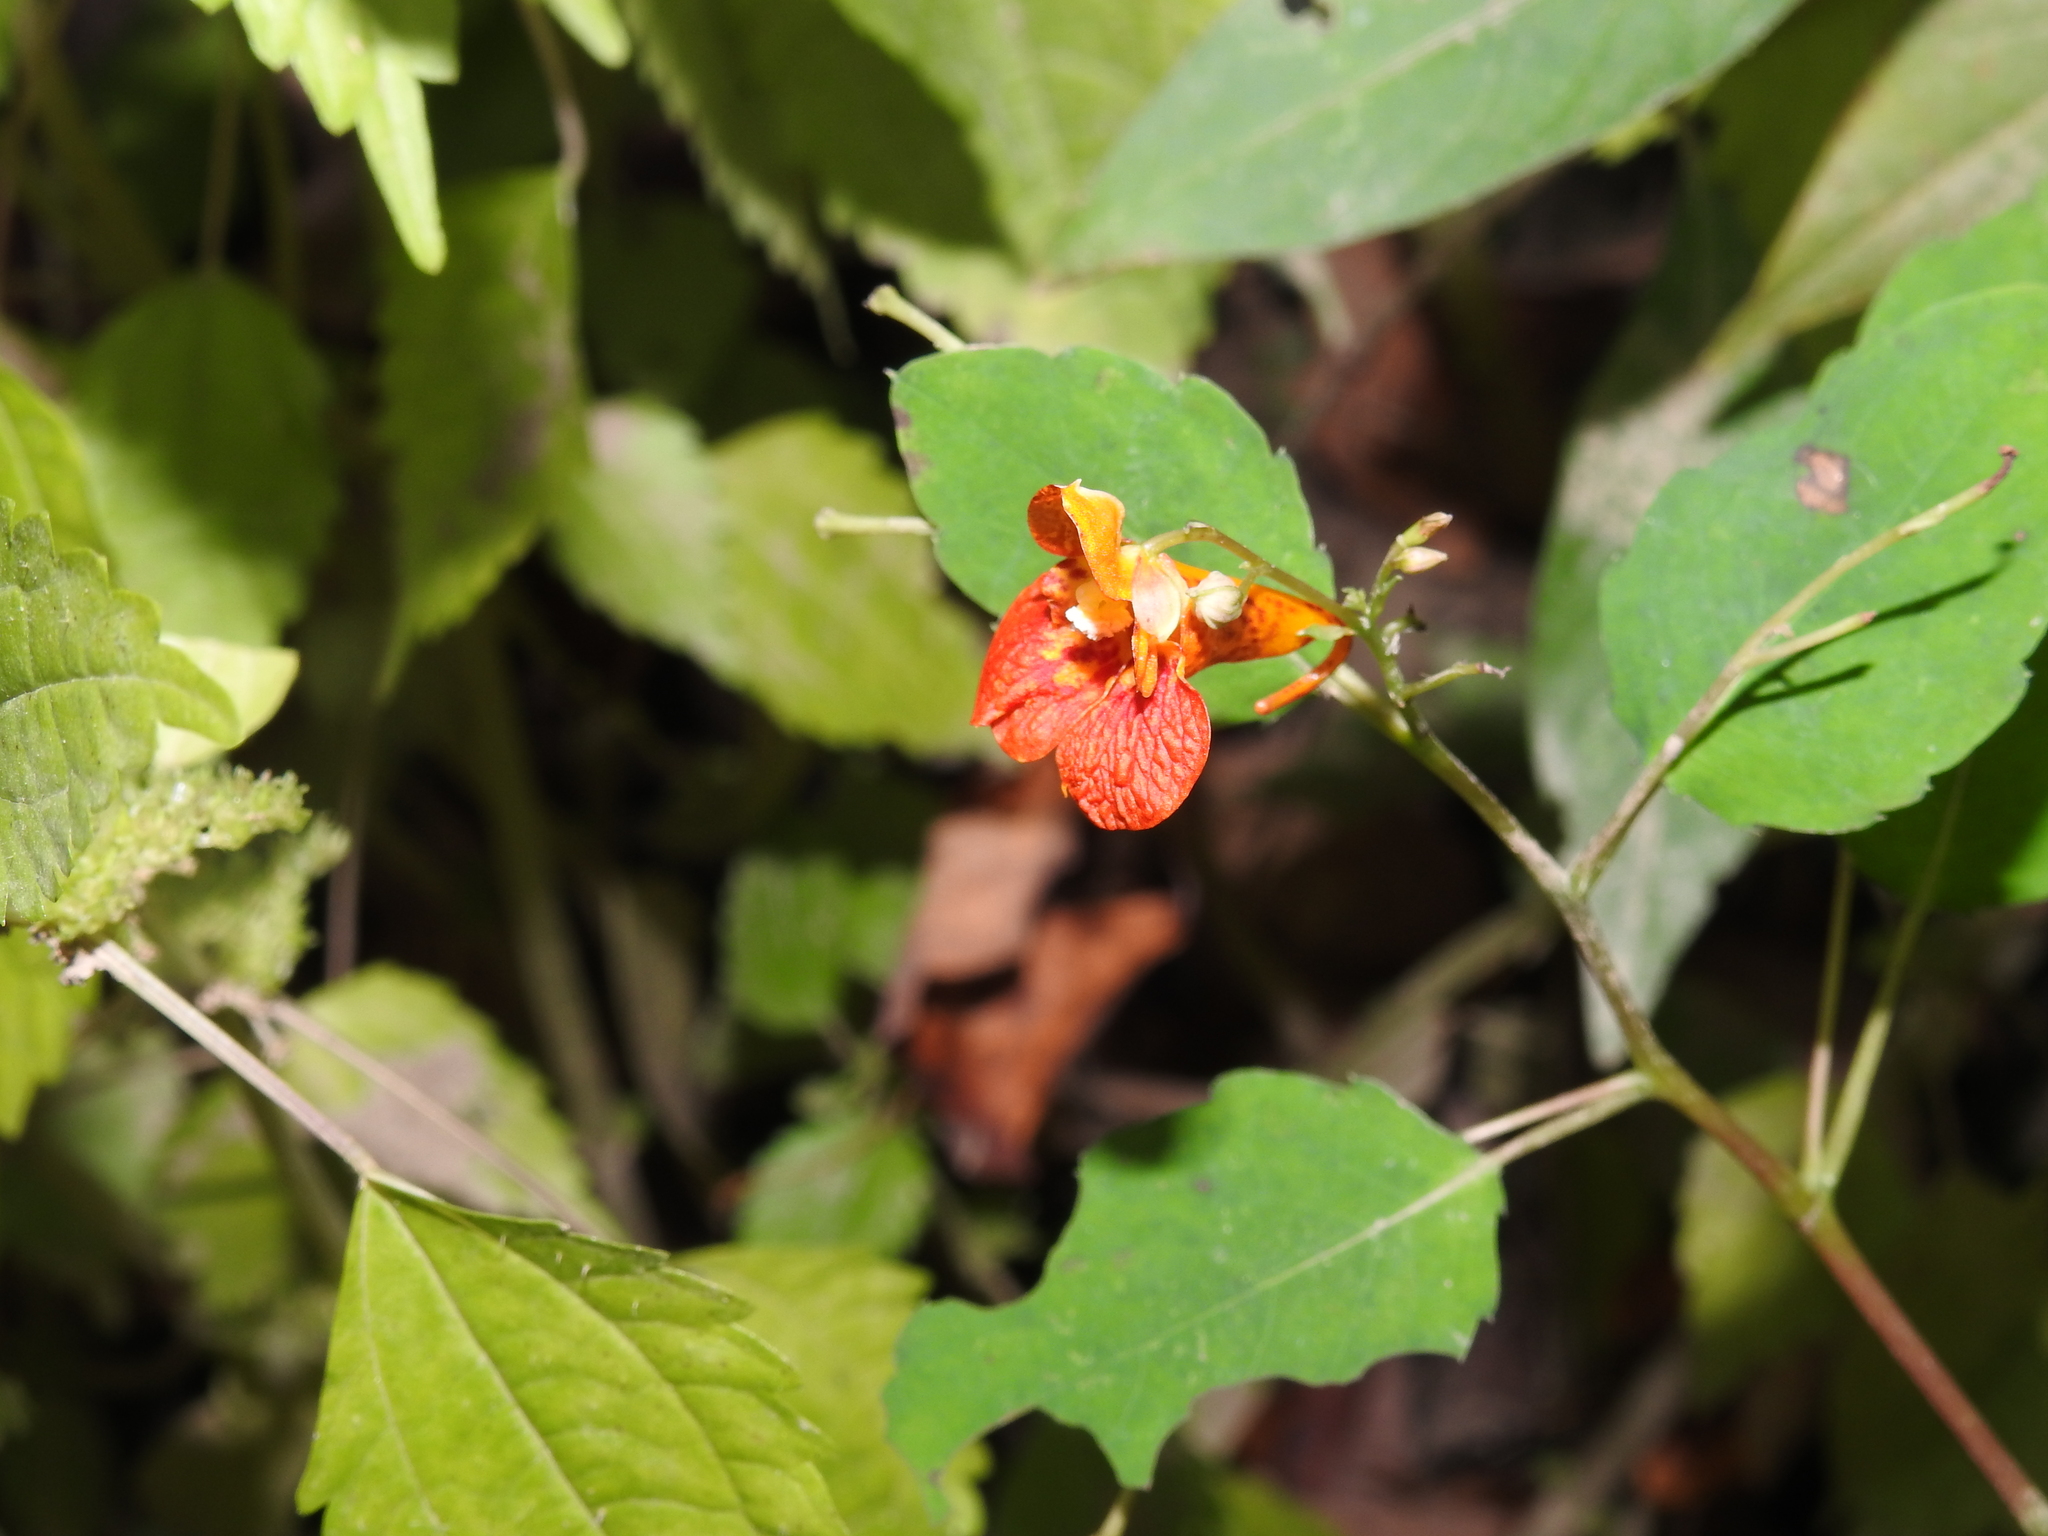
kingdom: Plantae
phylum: Tracheophyta
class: Magnoliopsida
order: Ericales
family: Balsaminaceae
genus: Impatiens
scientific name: Impatiens capensis
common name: Orange balsam
